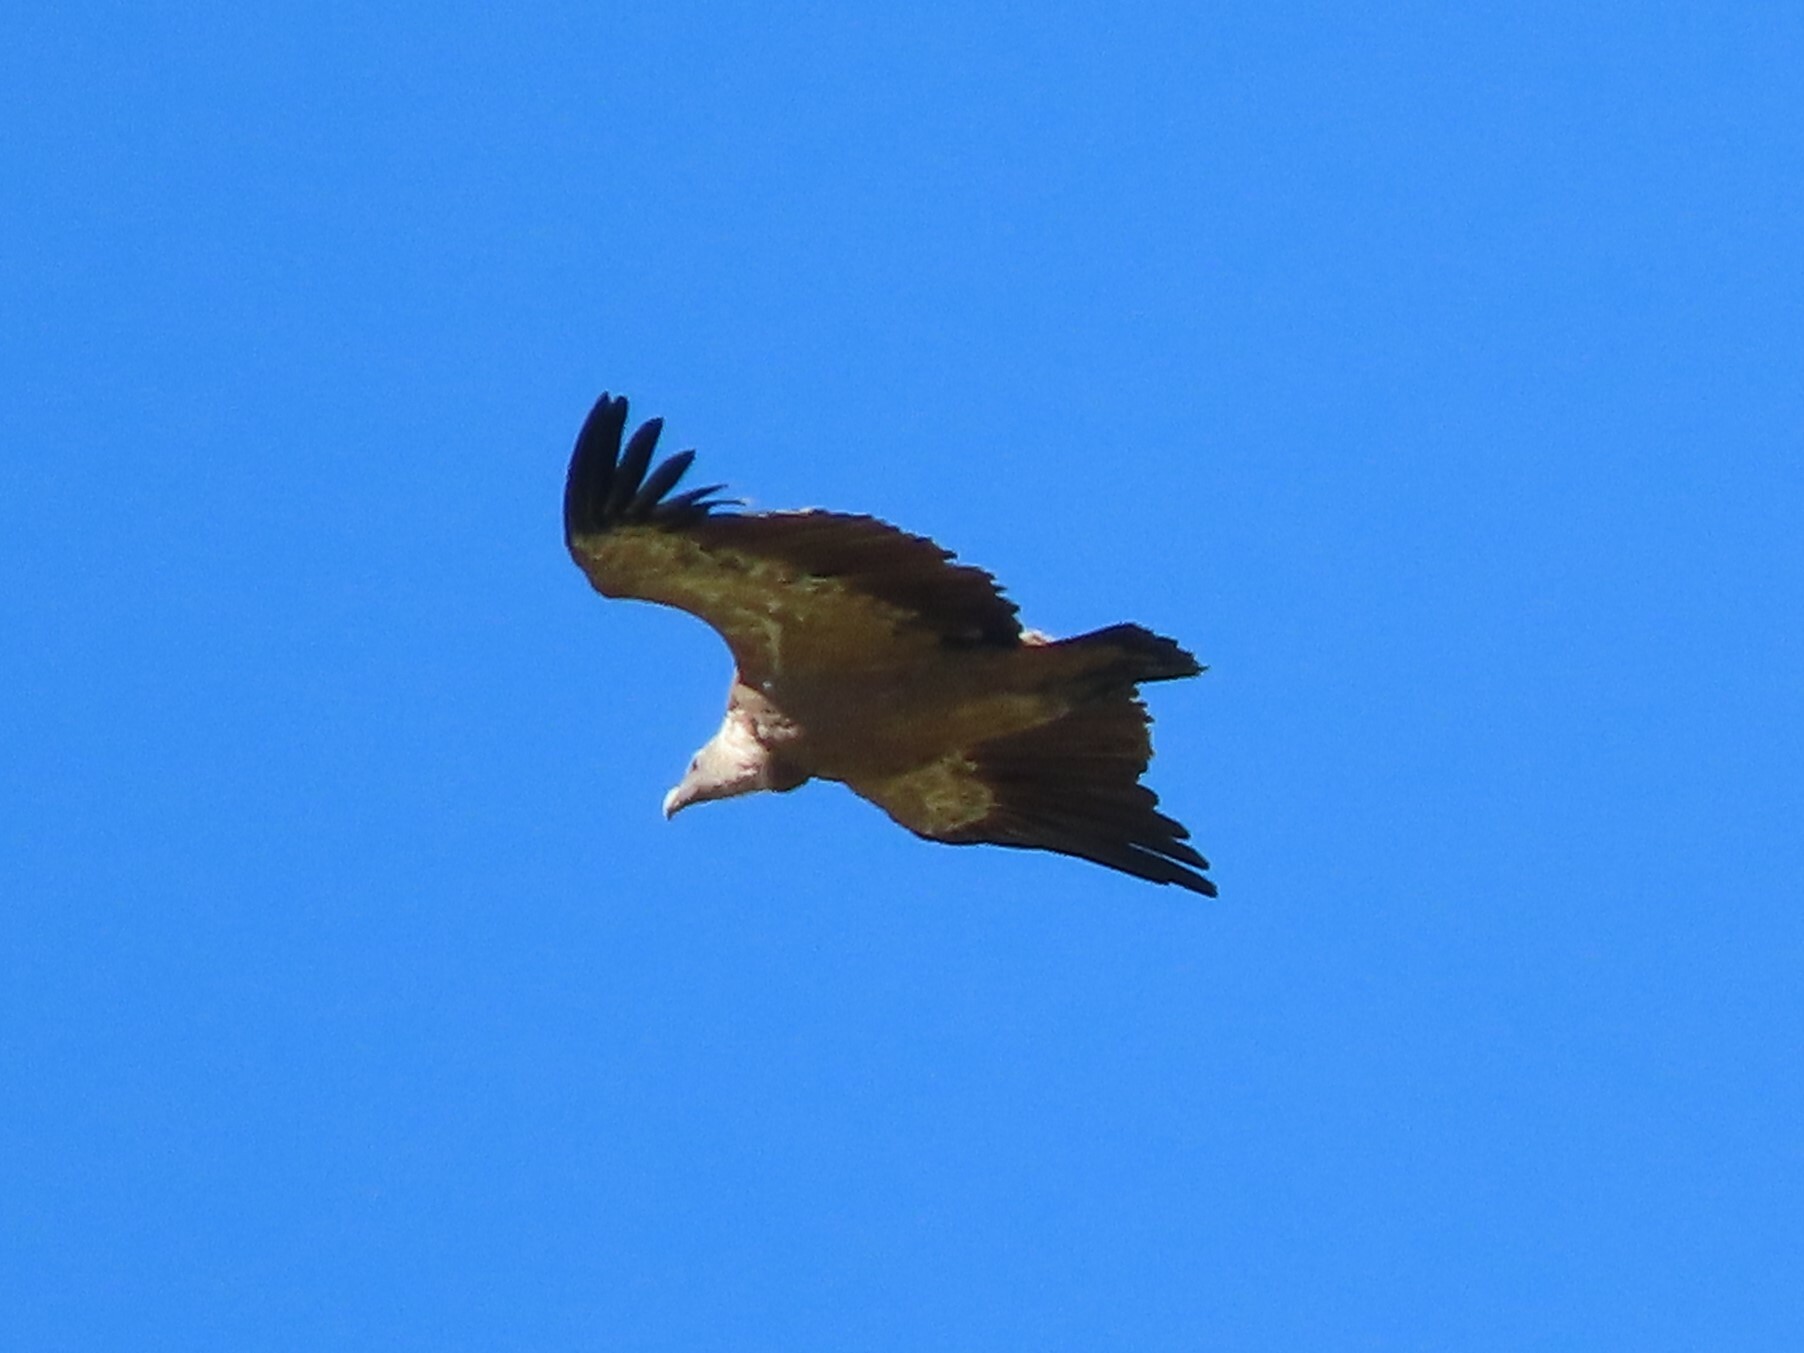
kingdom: Animalia
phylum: Chordata
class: Aves
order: Accipitriformes
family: Accipitridae
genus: Gyps
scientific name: Gyps fulvus
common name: Griffon vulture
